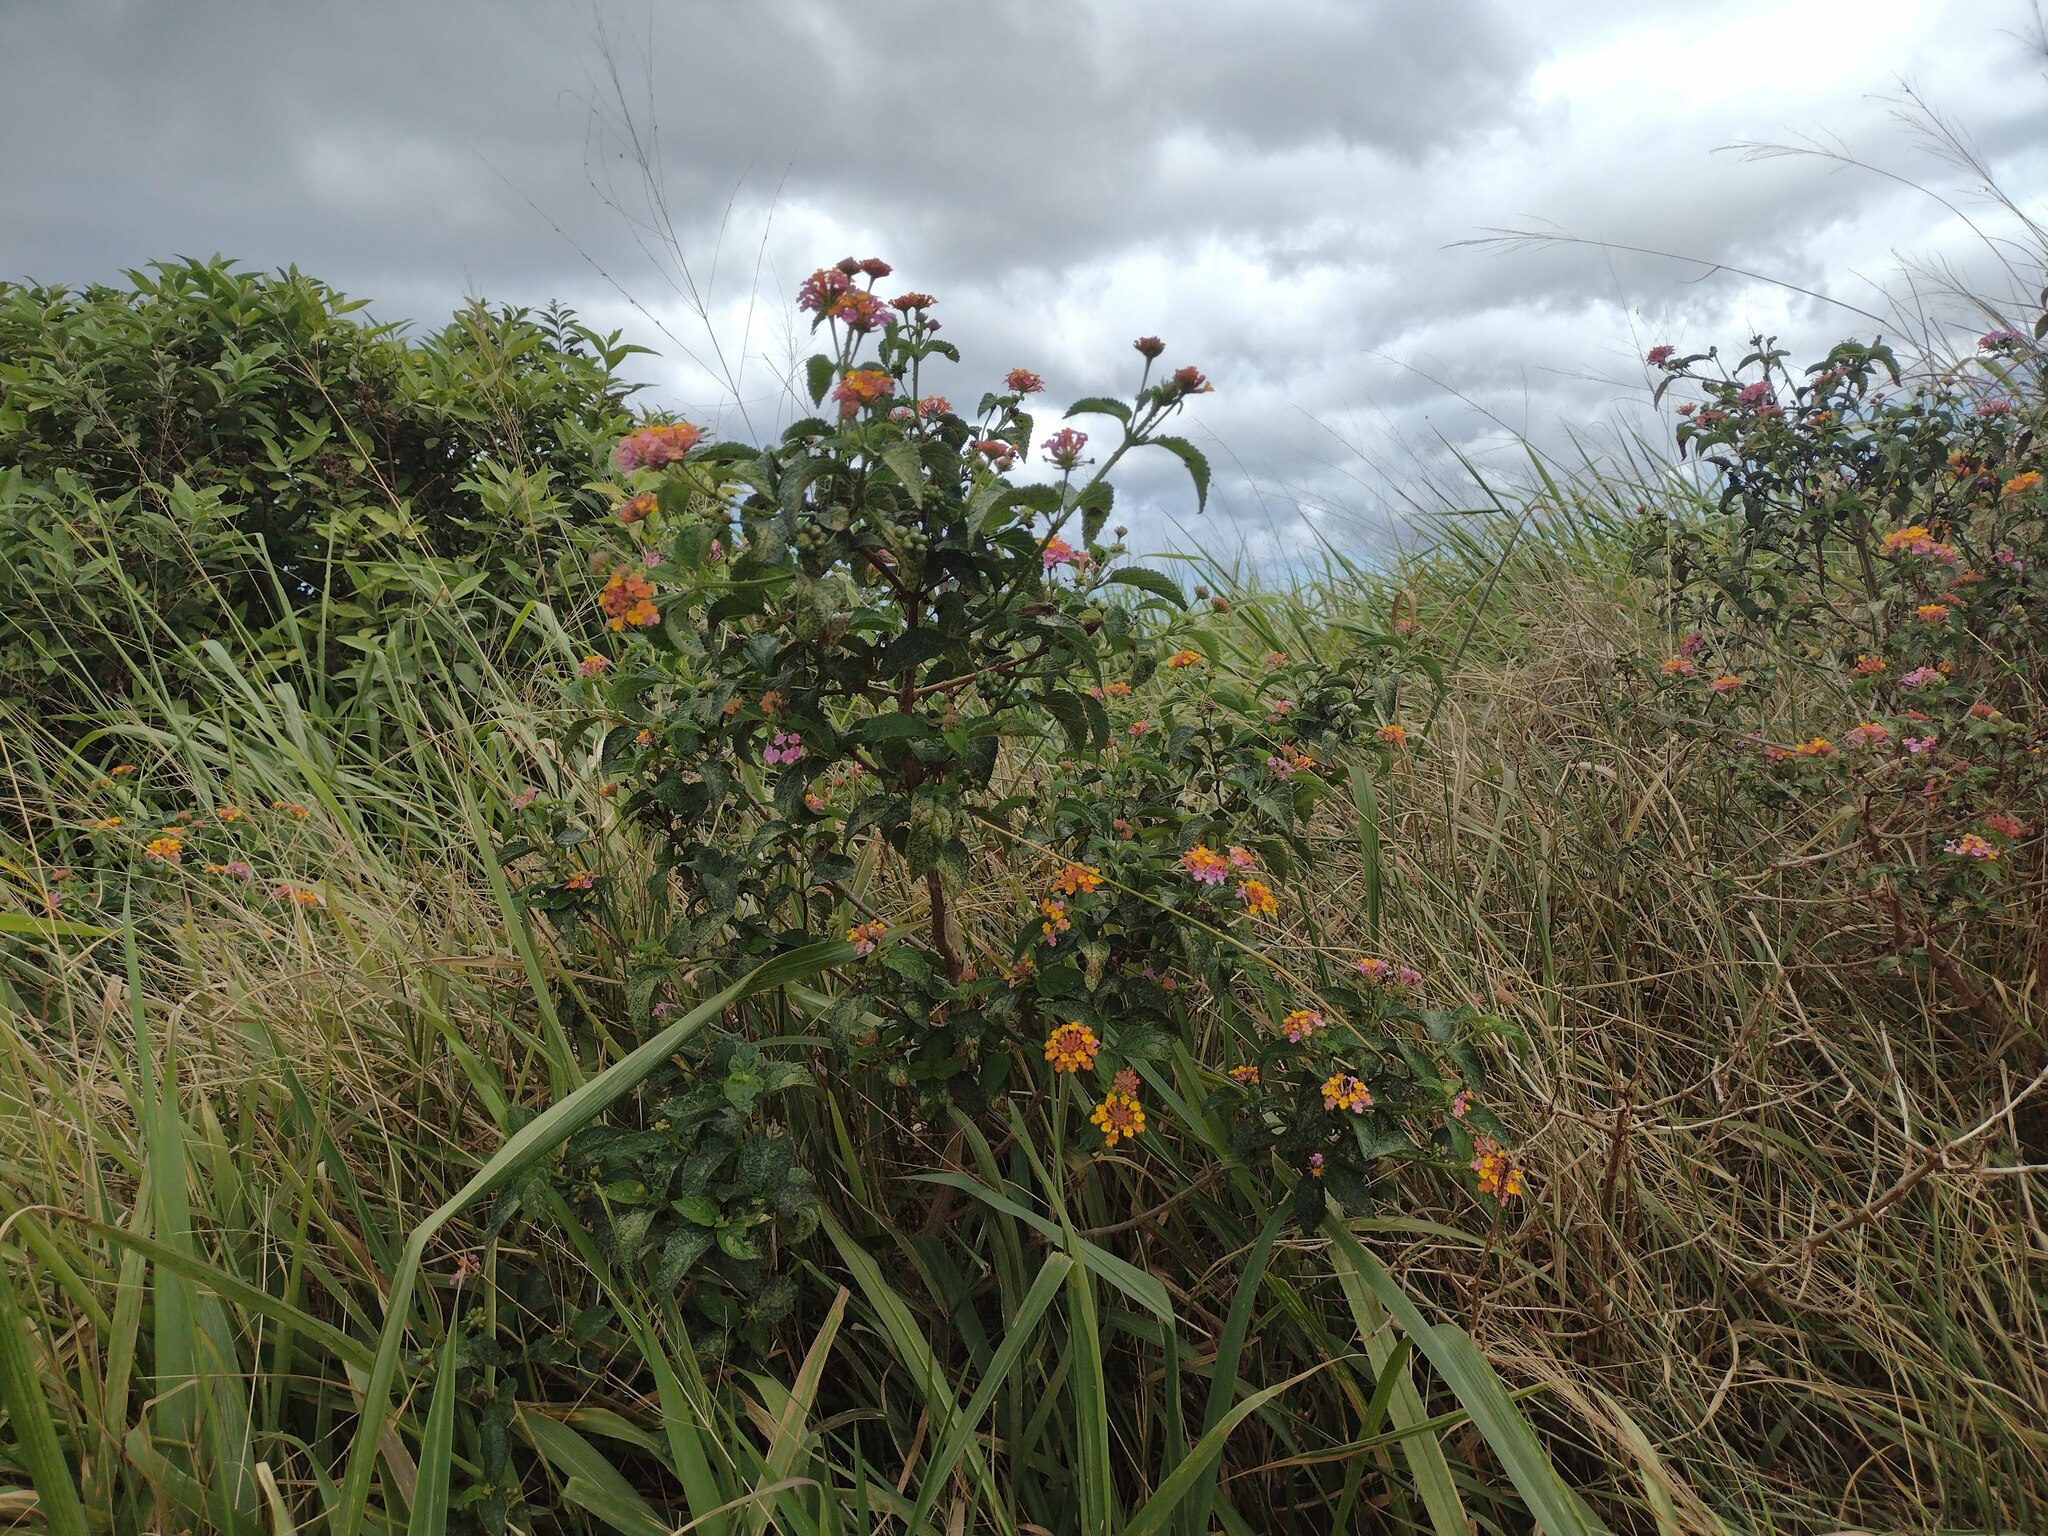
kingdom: Plantae
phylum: Tracheophyta
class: Magnoliopsida
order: Lamiales
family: Verbenaceae
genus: Lantana
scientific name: Lantana camara
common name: Lantana
